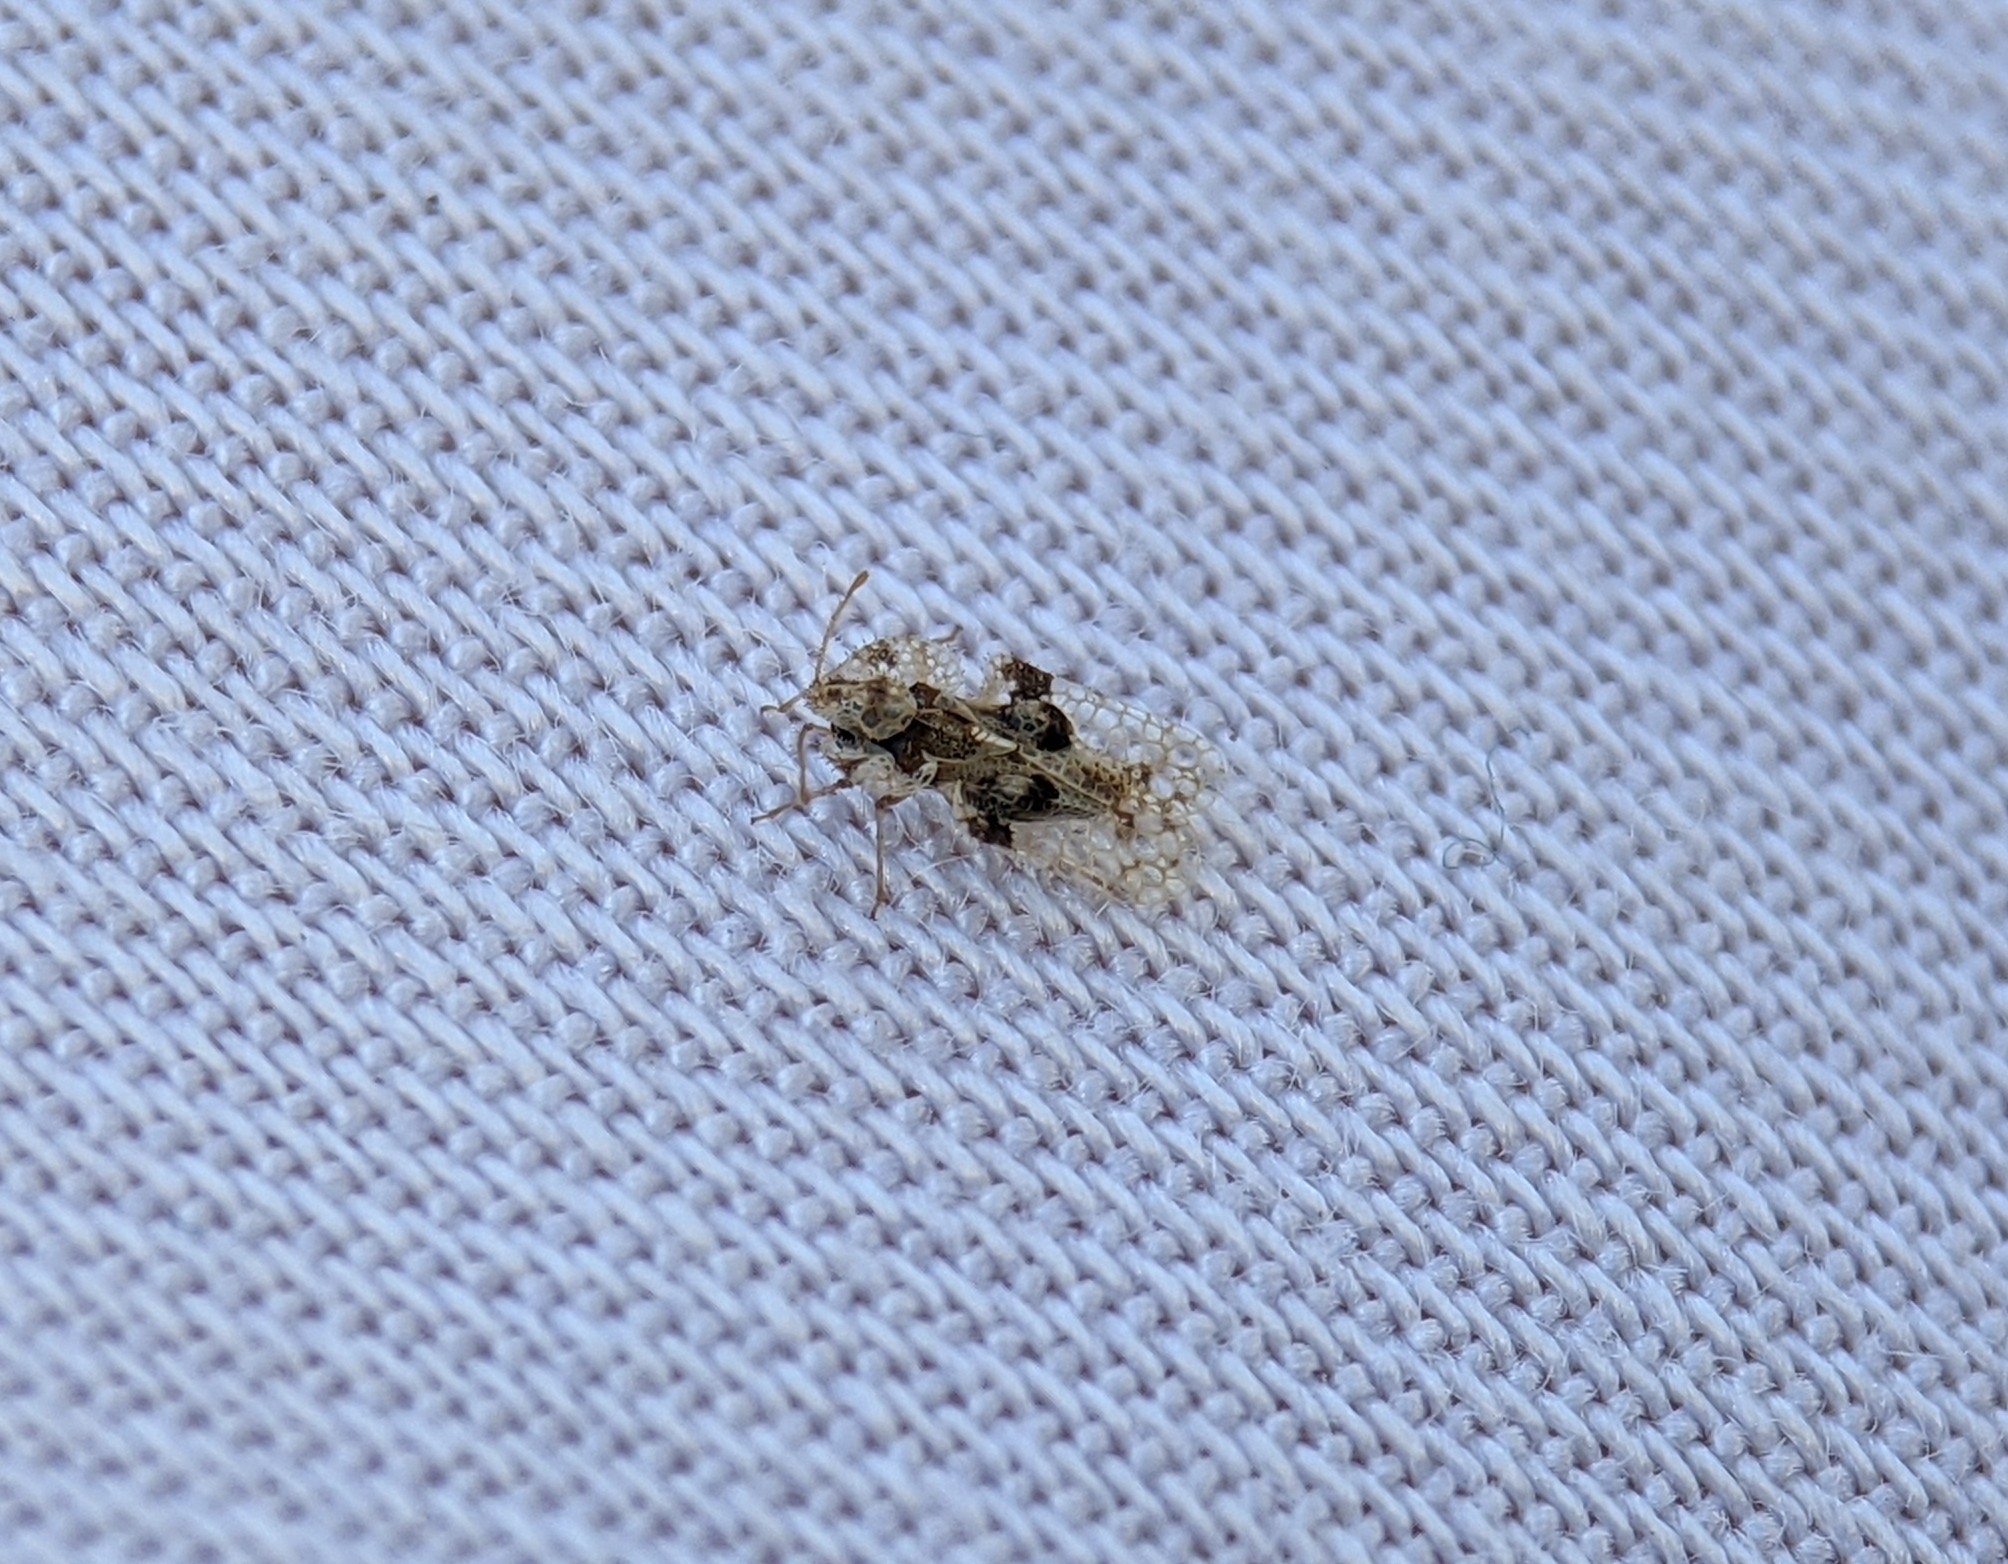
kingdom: Animalia
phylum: Arthropoda
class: Insecta
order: Hemiptera
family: Tingidae
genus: Corythucha
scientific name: Corythucha arcuata
